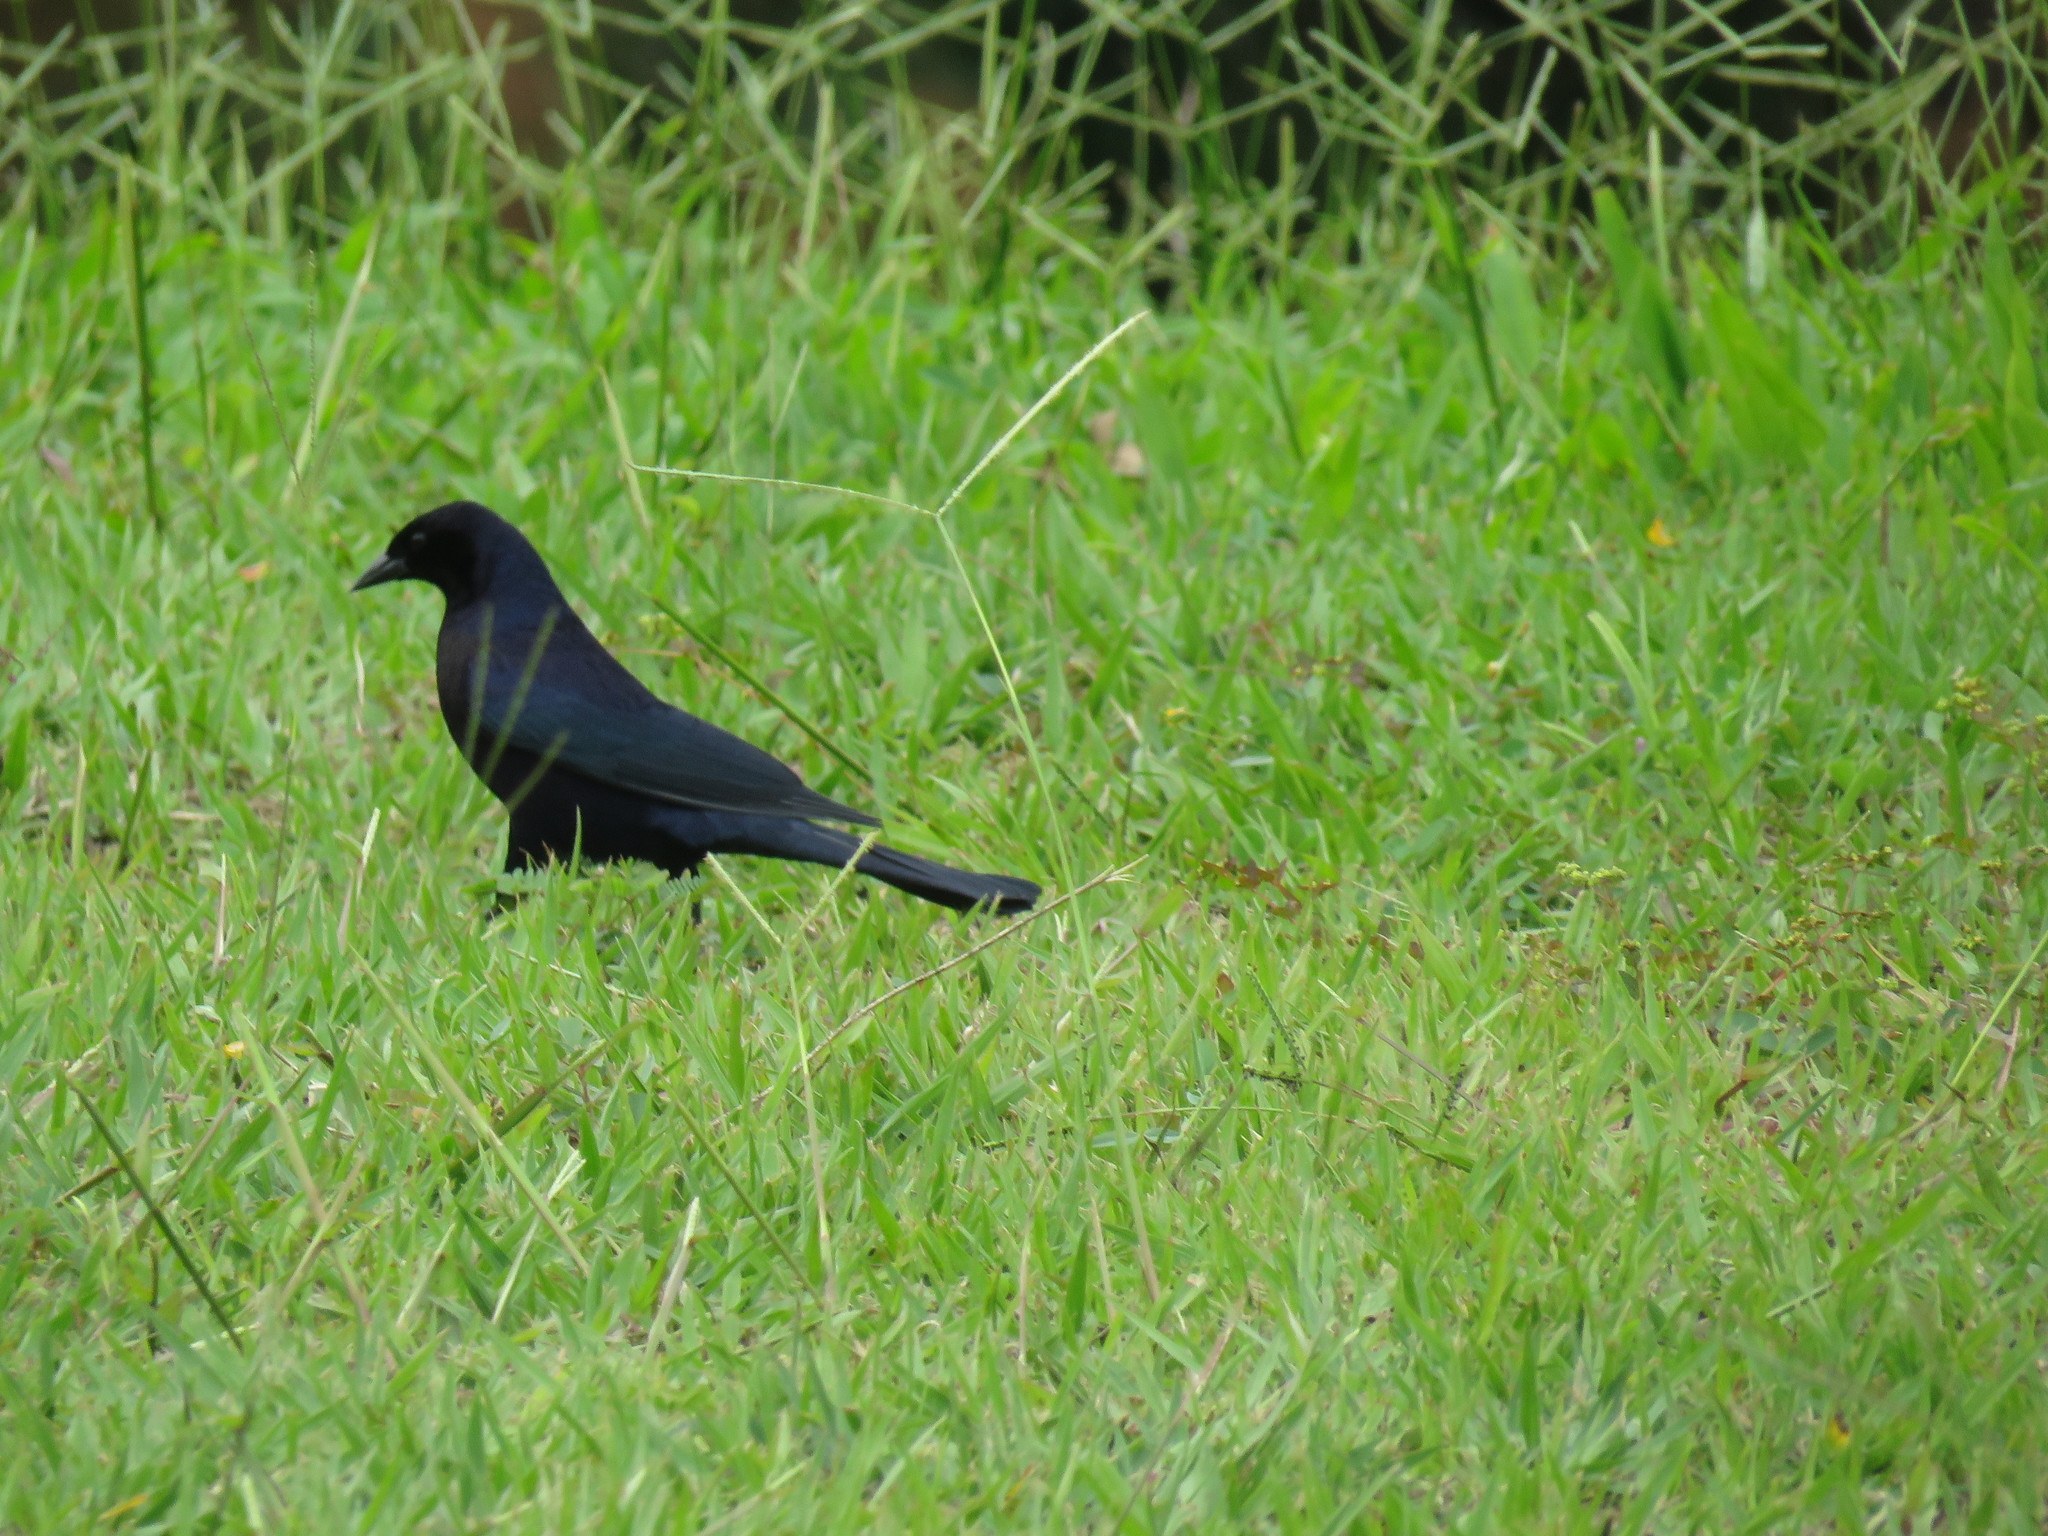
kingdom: Animalia
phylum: Chordata
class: Aves
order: Passeriformes
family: Icteridae
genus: Molothrus
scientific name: Molothrus bonariensis
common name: Shiny cowbird
